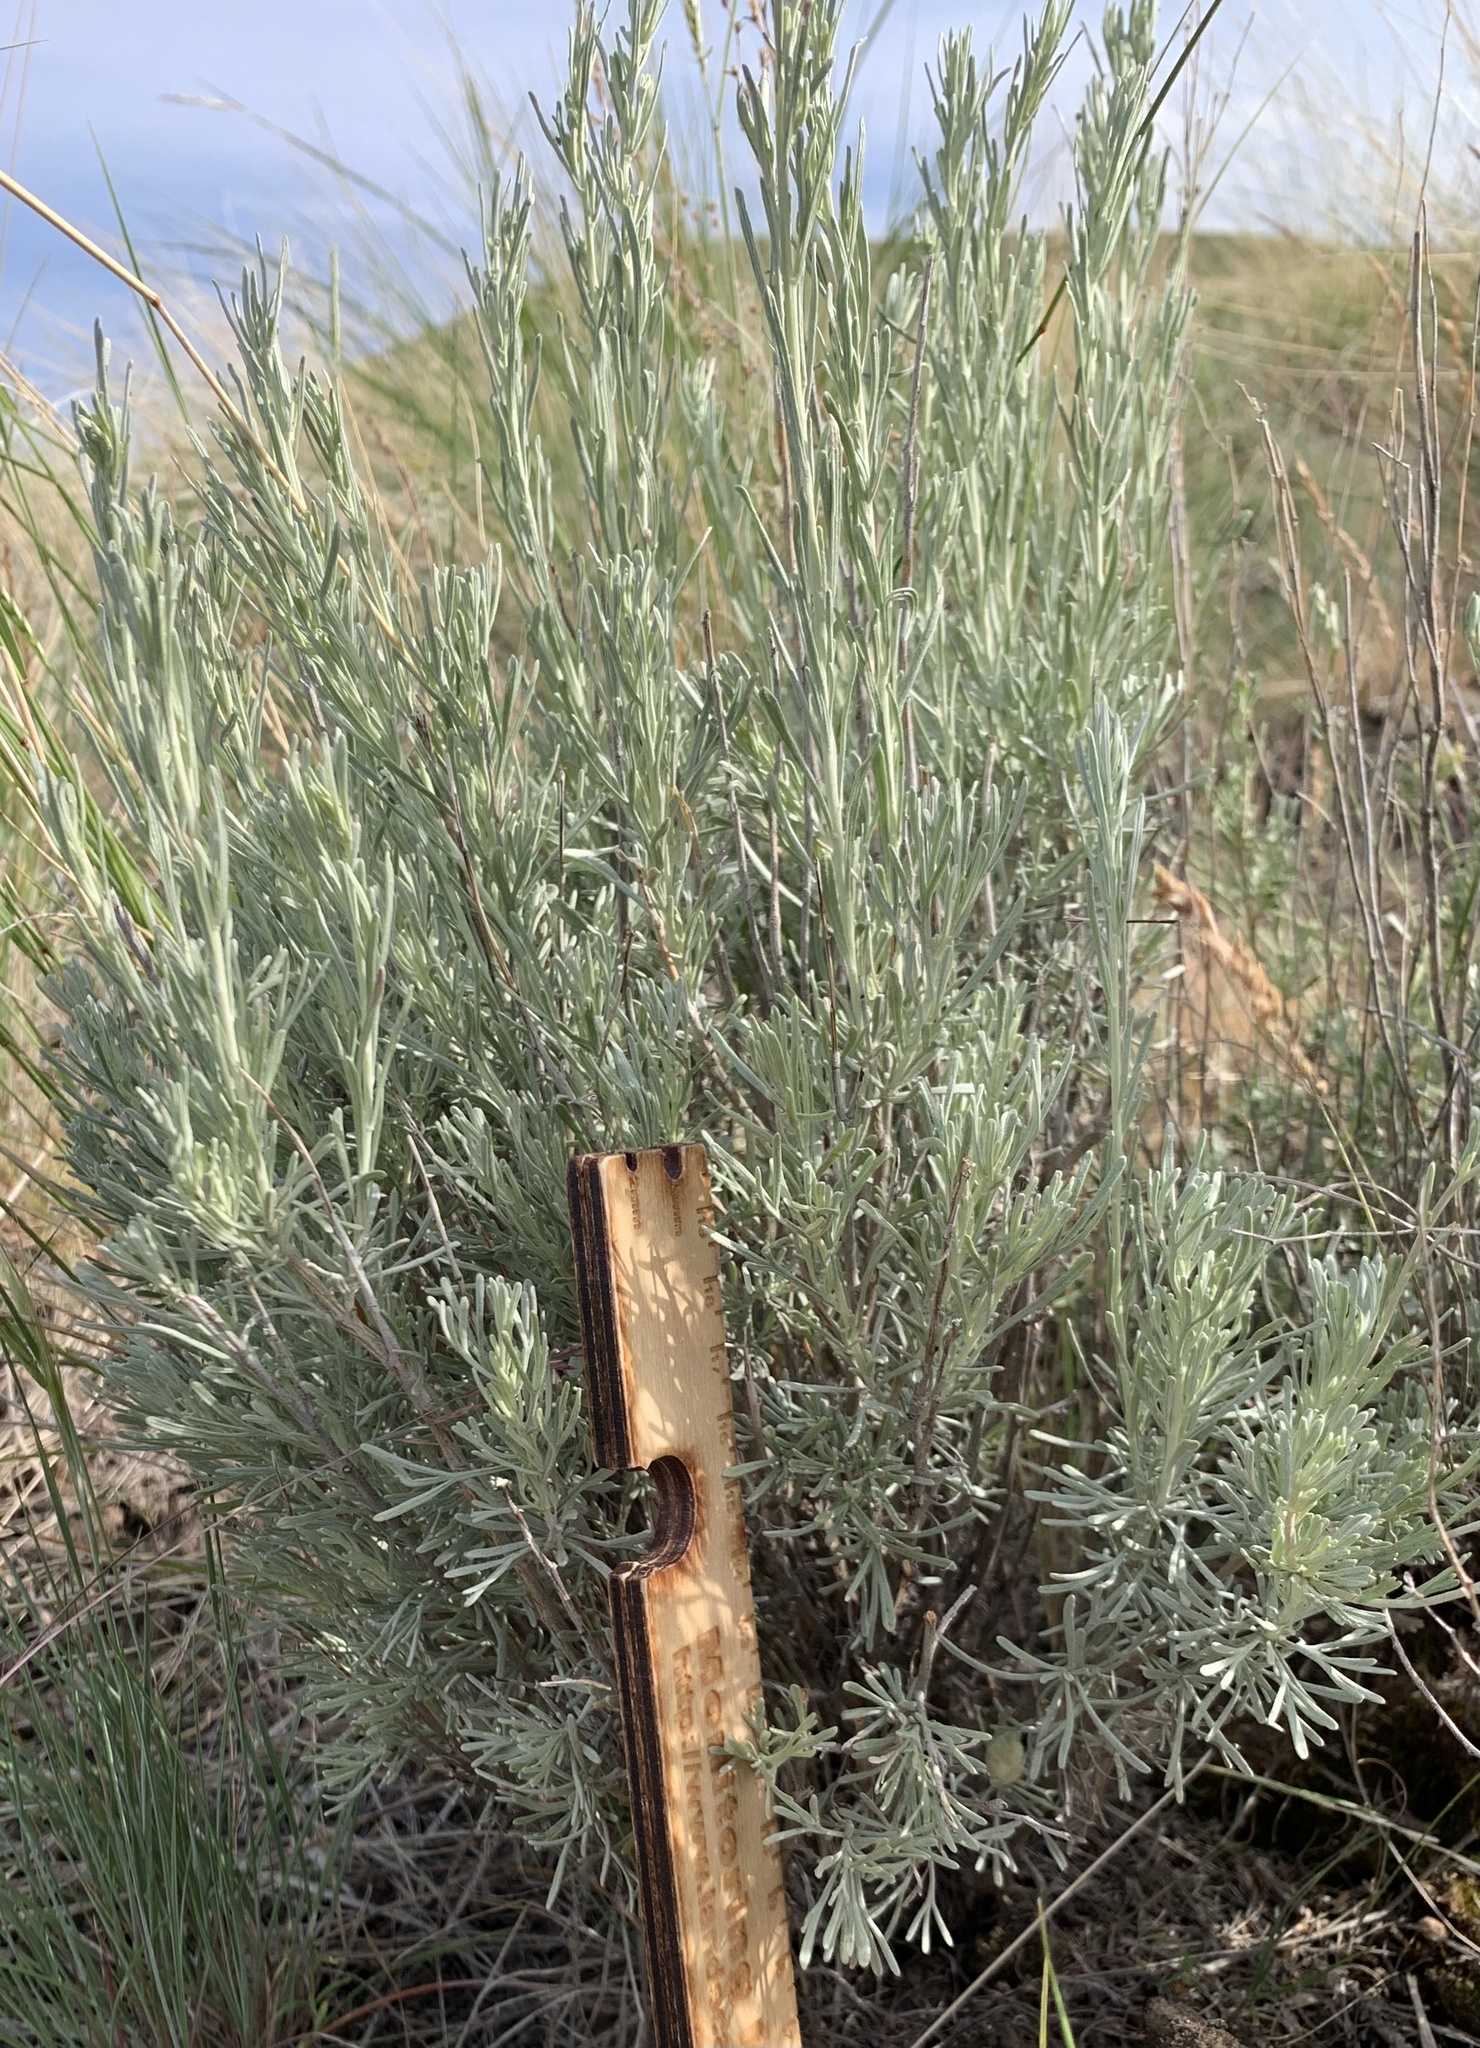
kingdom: Plantae
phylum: Tracheophyta
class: Magnoliopsida
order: Asterales
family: Asteraceae
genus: Artemisia
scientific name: Artemisia tripartita
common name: Three-tip sagebrush
